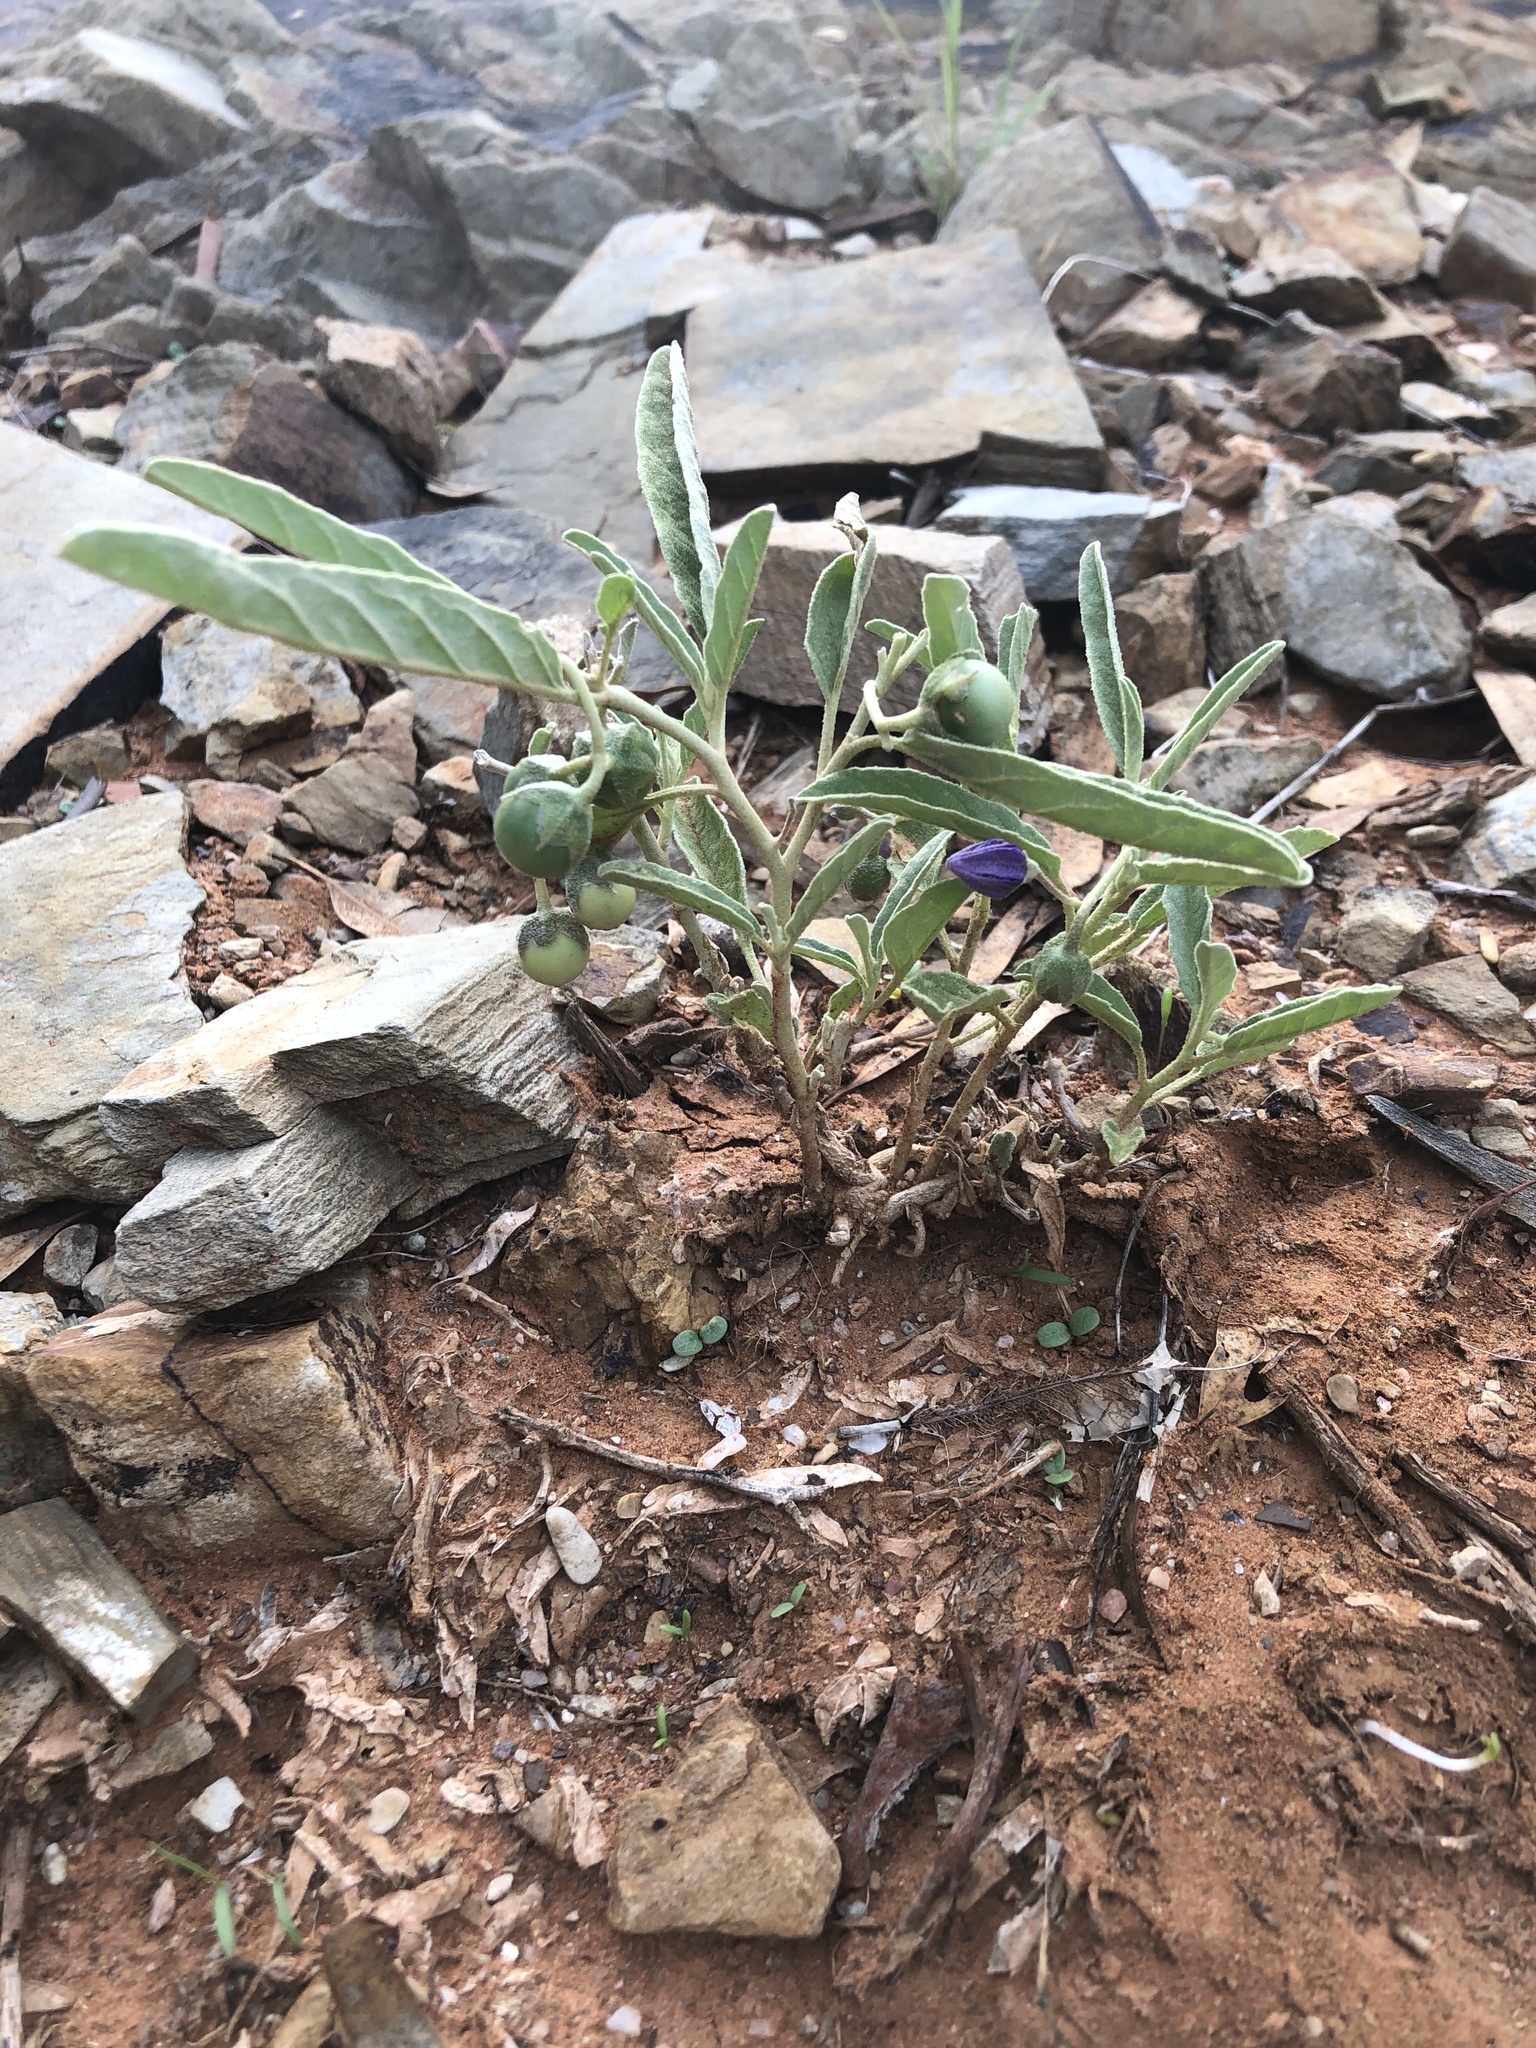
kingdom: Plantae
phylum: Tracheophyta
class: Magnoliopsida
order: Solanales
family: Solanaceae
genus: Solanum
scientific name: Solanum esuriale
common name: Wild tomato
